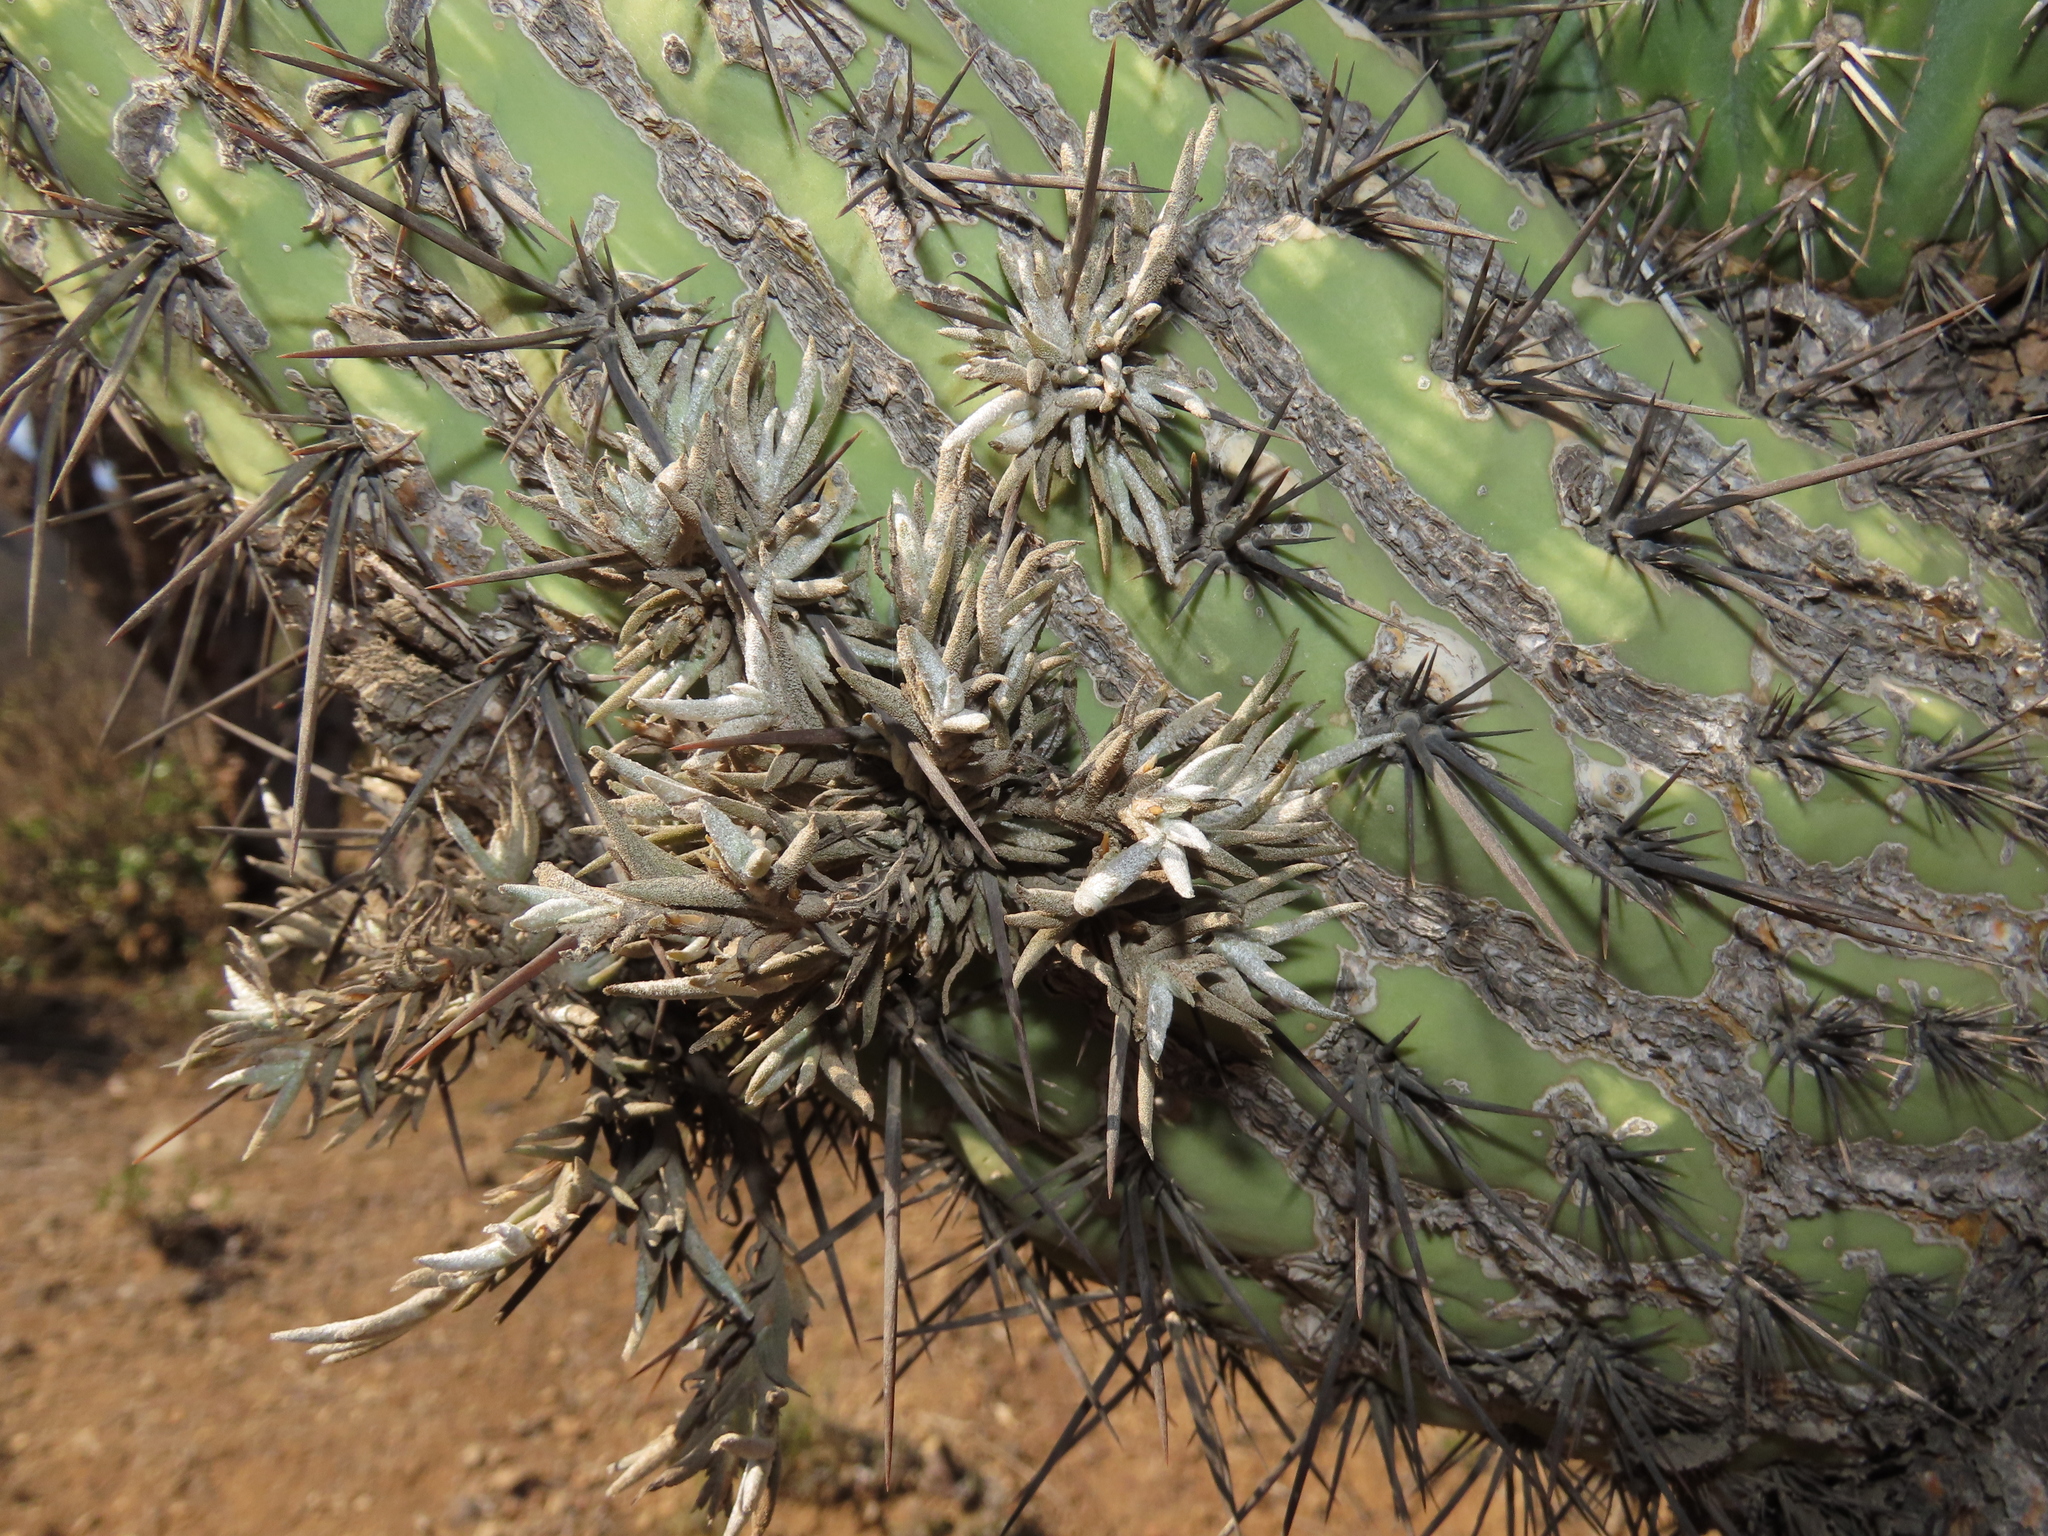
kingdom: Plantae
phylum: Tracheophyta
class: Liliopsida
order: Poales
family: Bromeliaceae
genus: Tillandsia
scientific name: Tillandsia virescens
